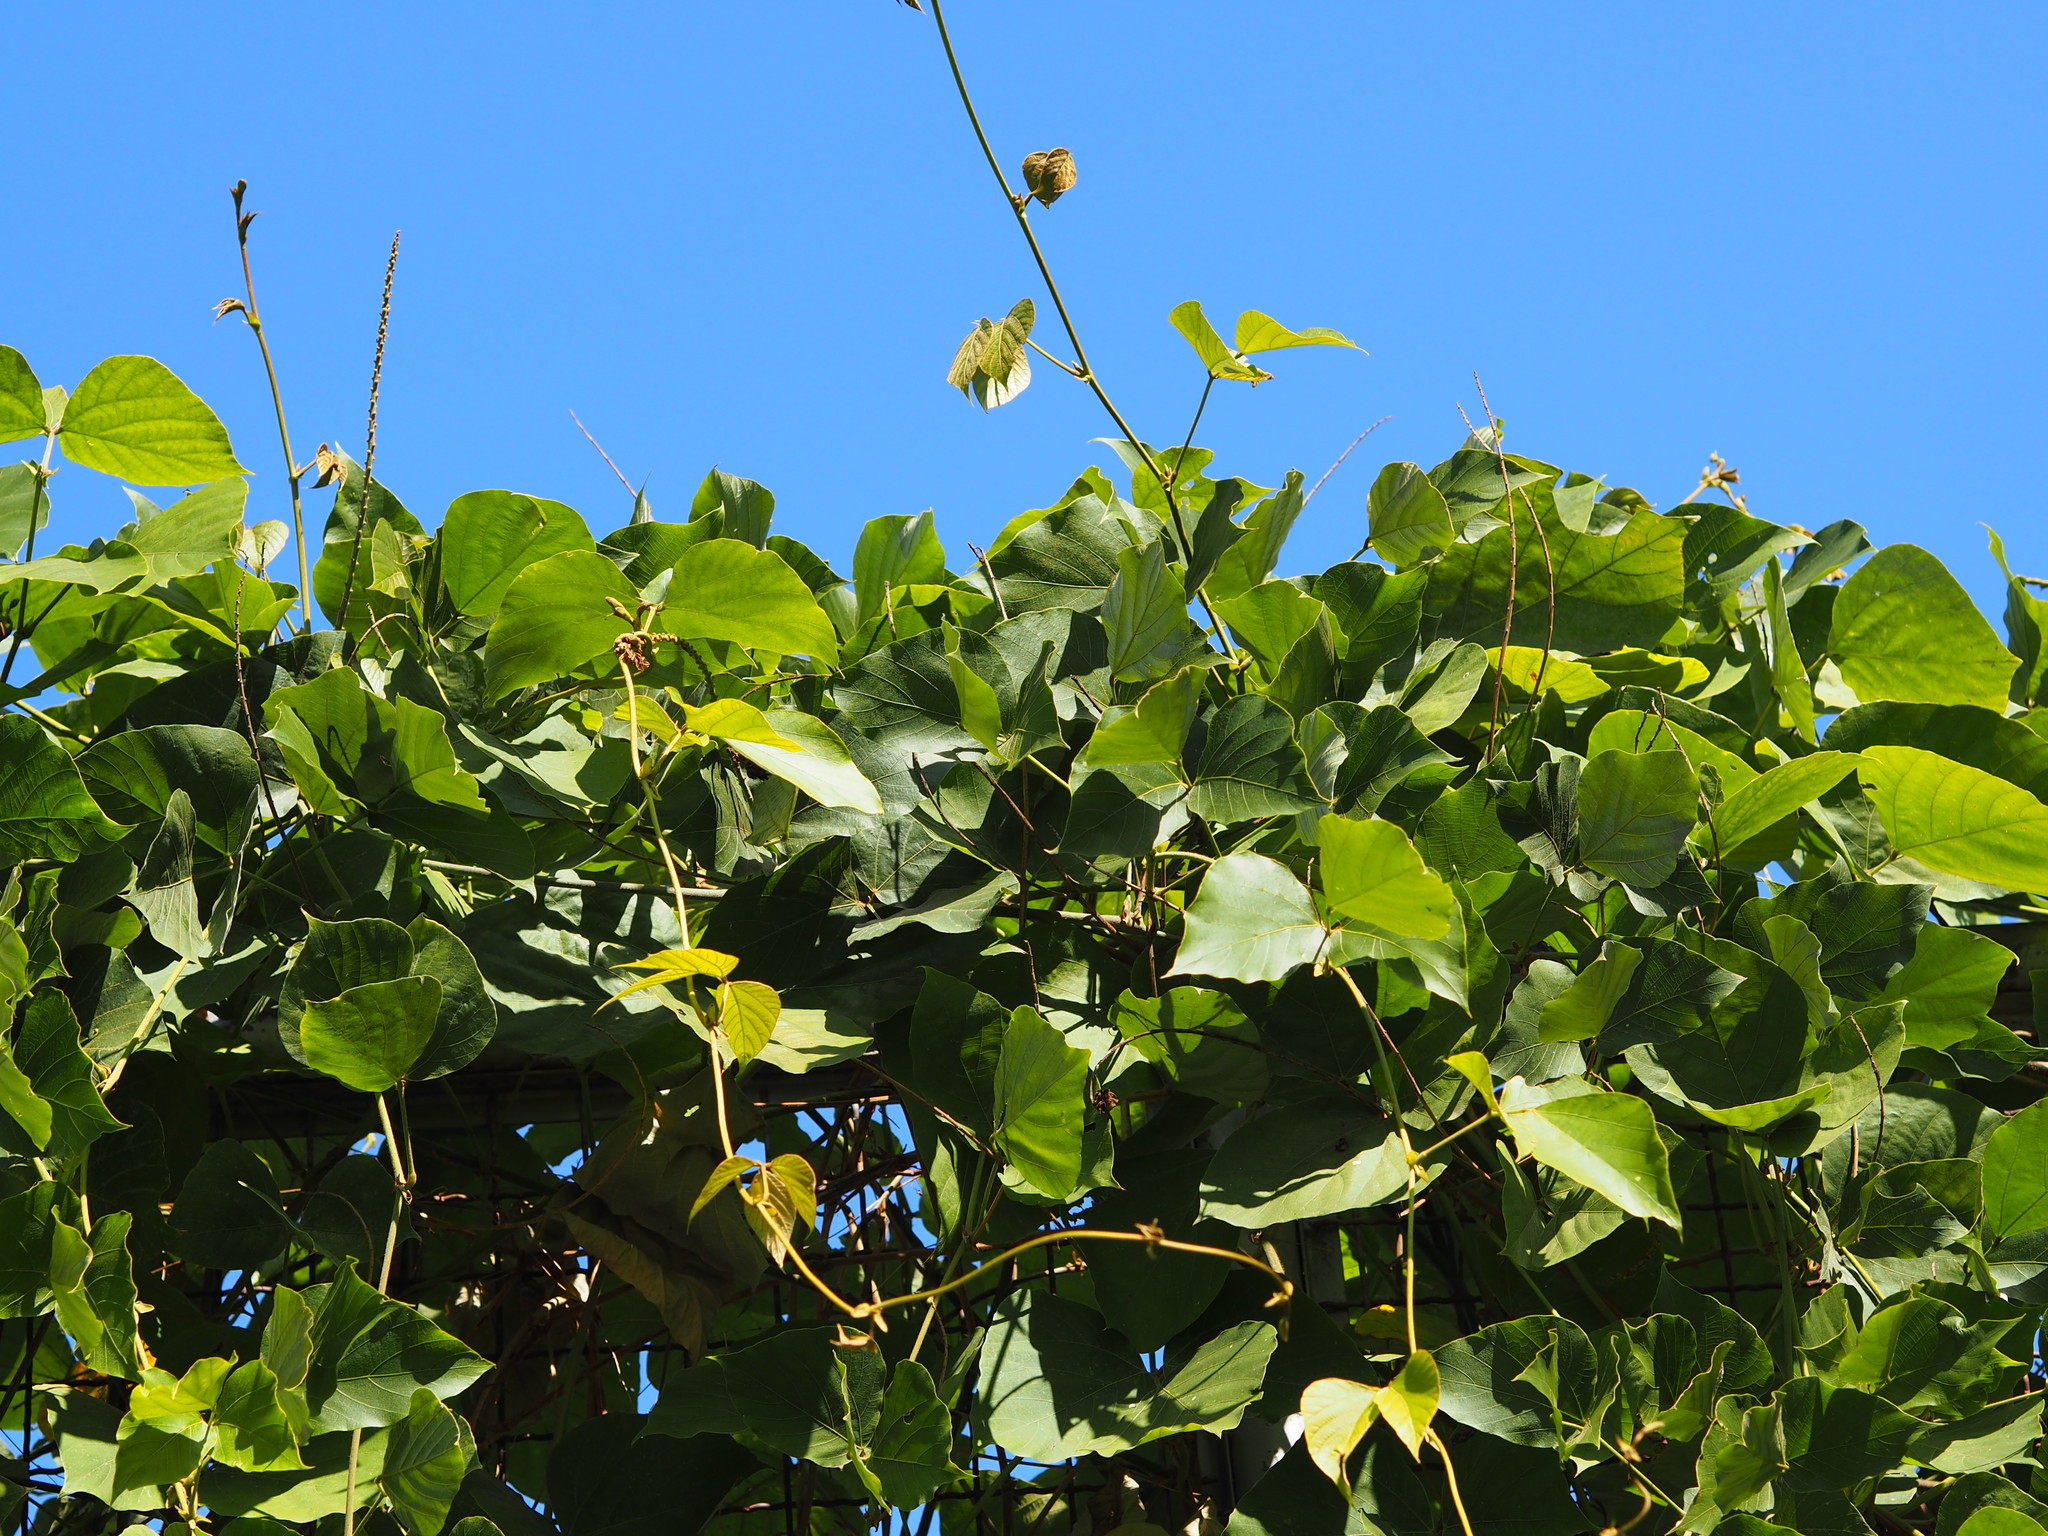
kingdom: Plantae
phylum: Tracheophyta
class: Magnoliopsida
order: Fabales
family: Fabaceae
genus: Pueraria
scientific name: Pueraria montana
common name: Kudzu
